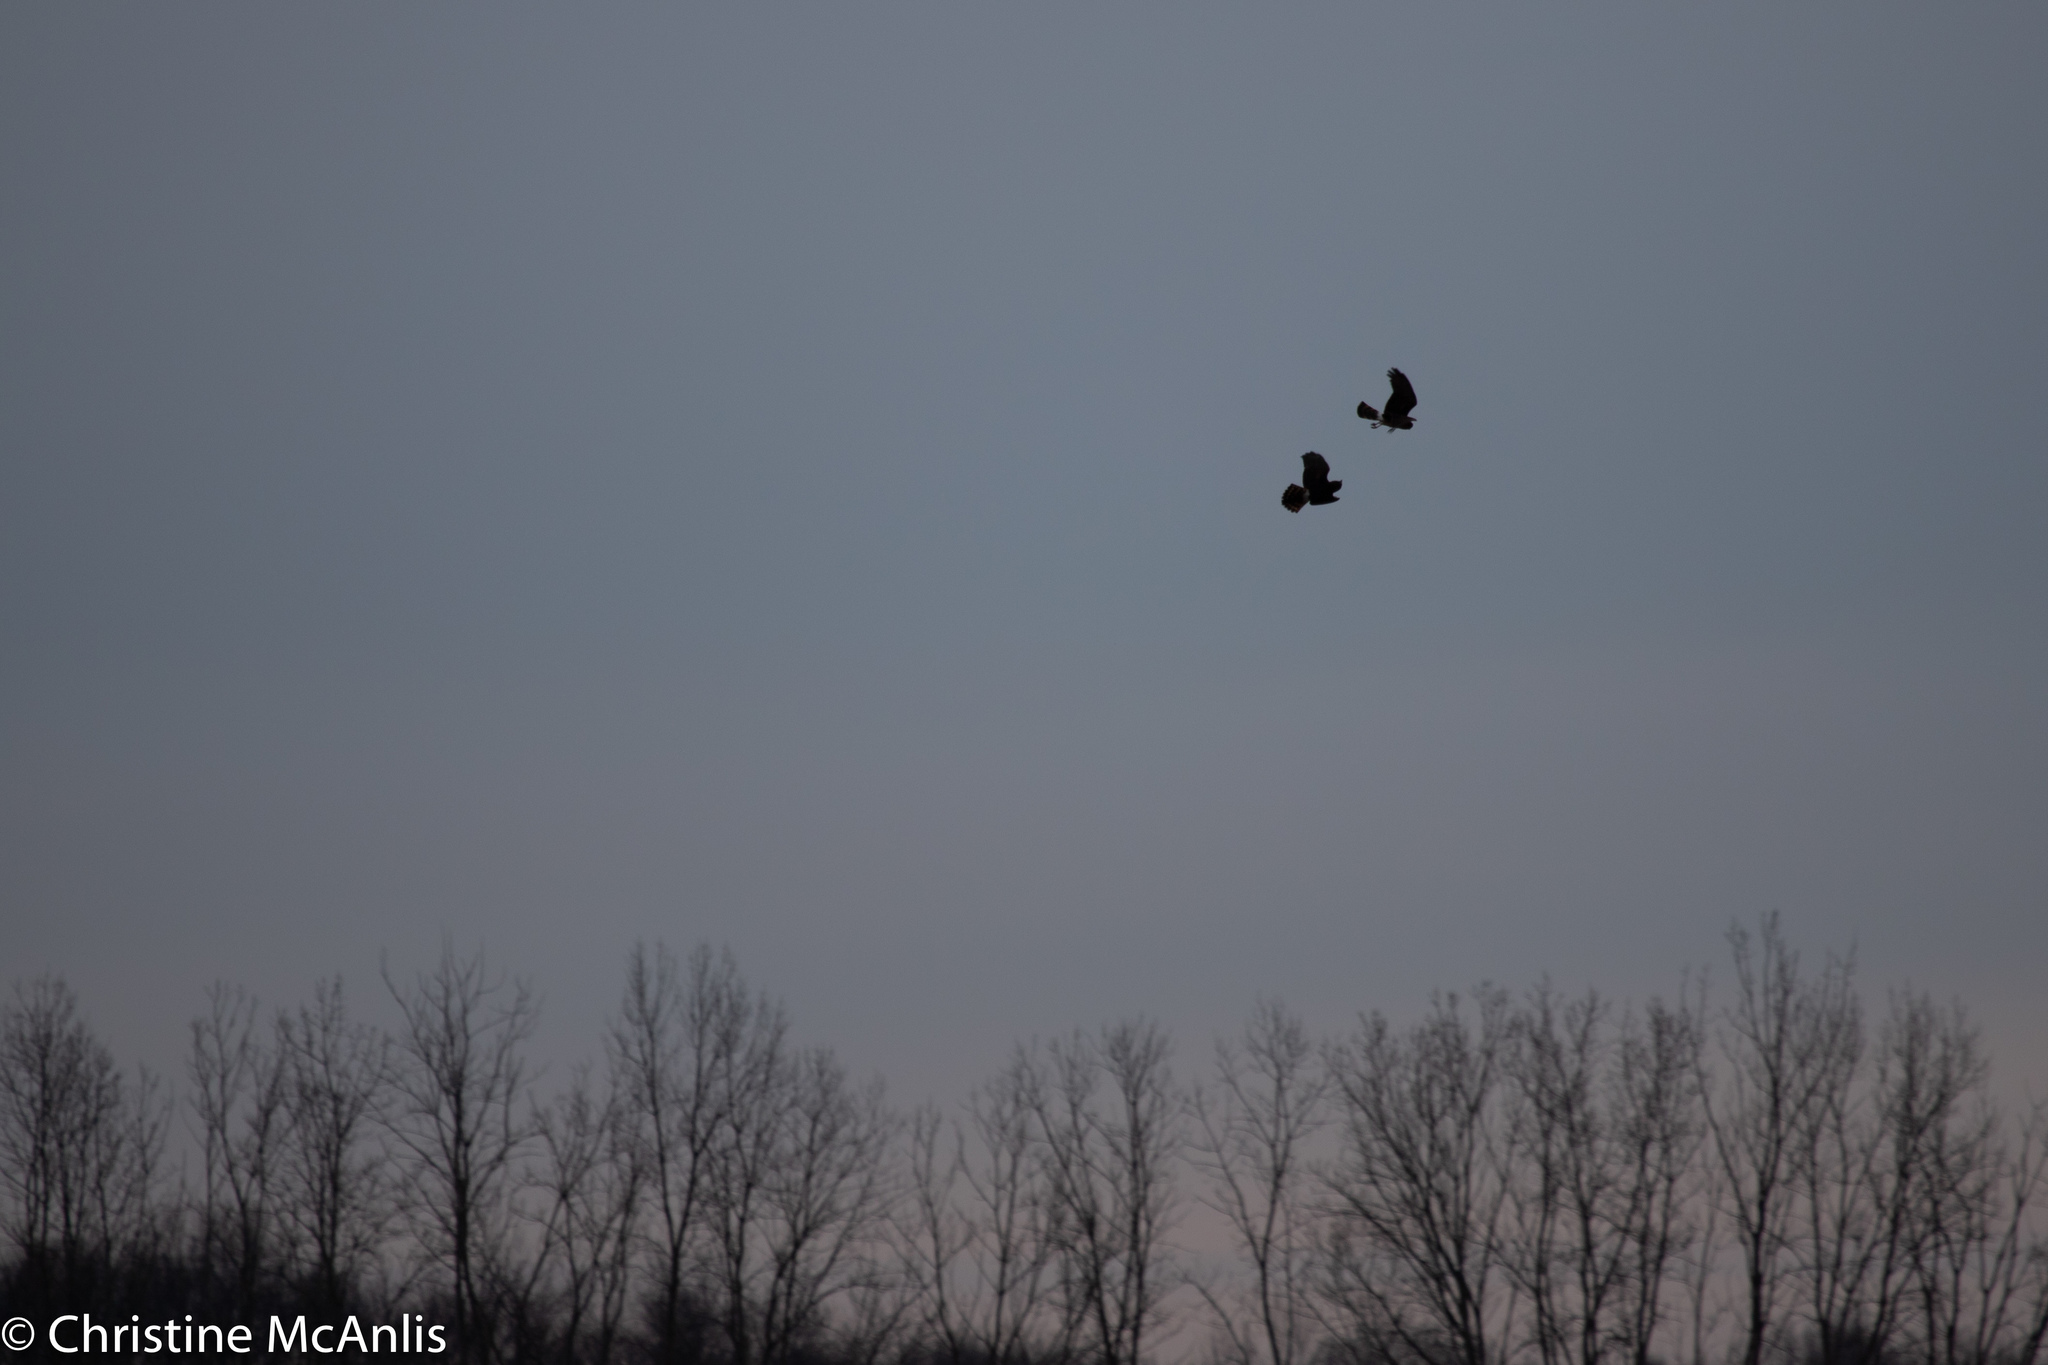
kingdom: Animalia
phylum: Chordata
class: Aves
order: Accipitriformes
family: Accipitridae
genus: Circus
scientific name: Circus cyaneus
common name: Hen harrier
